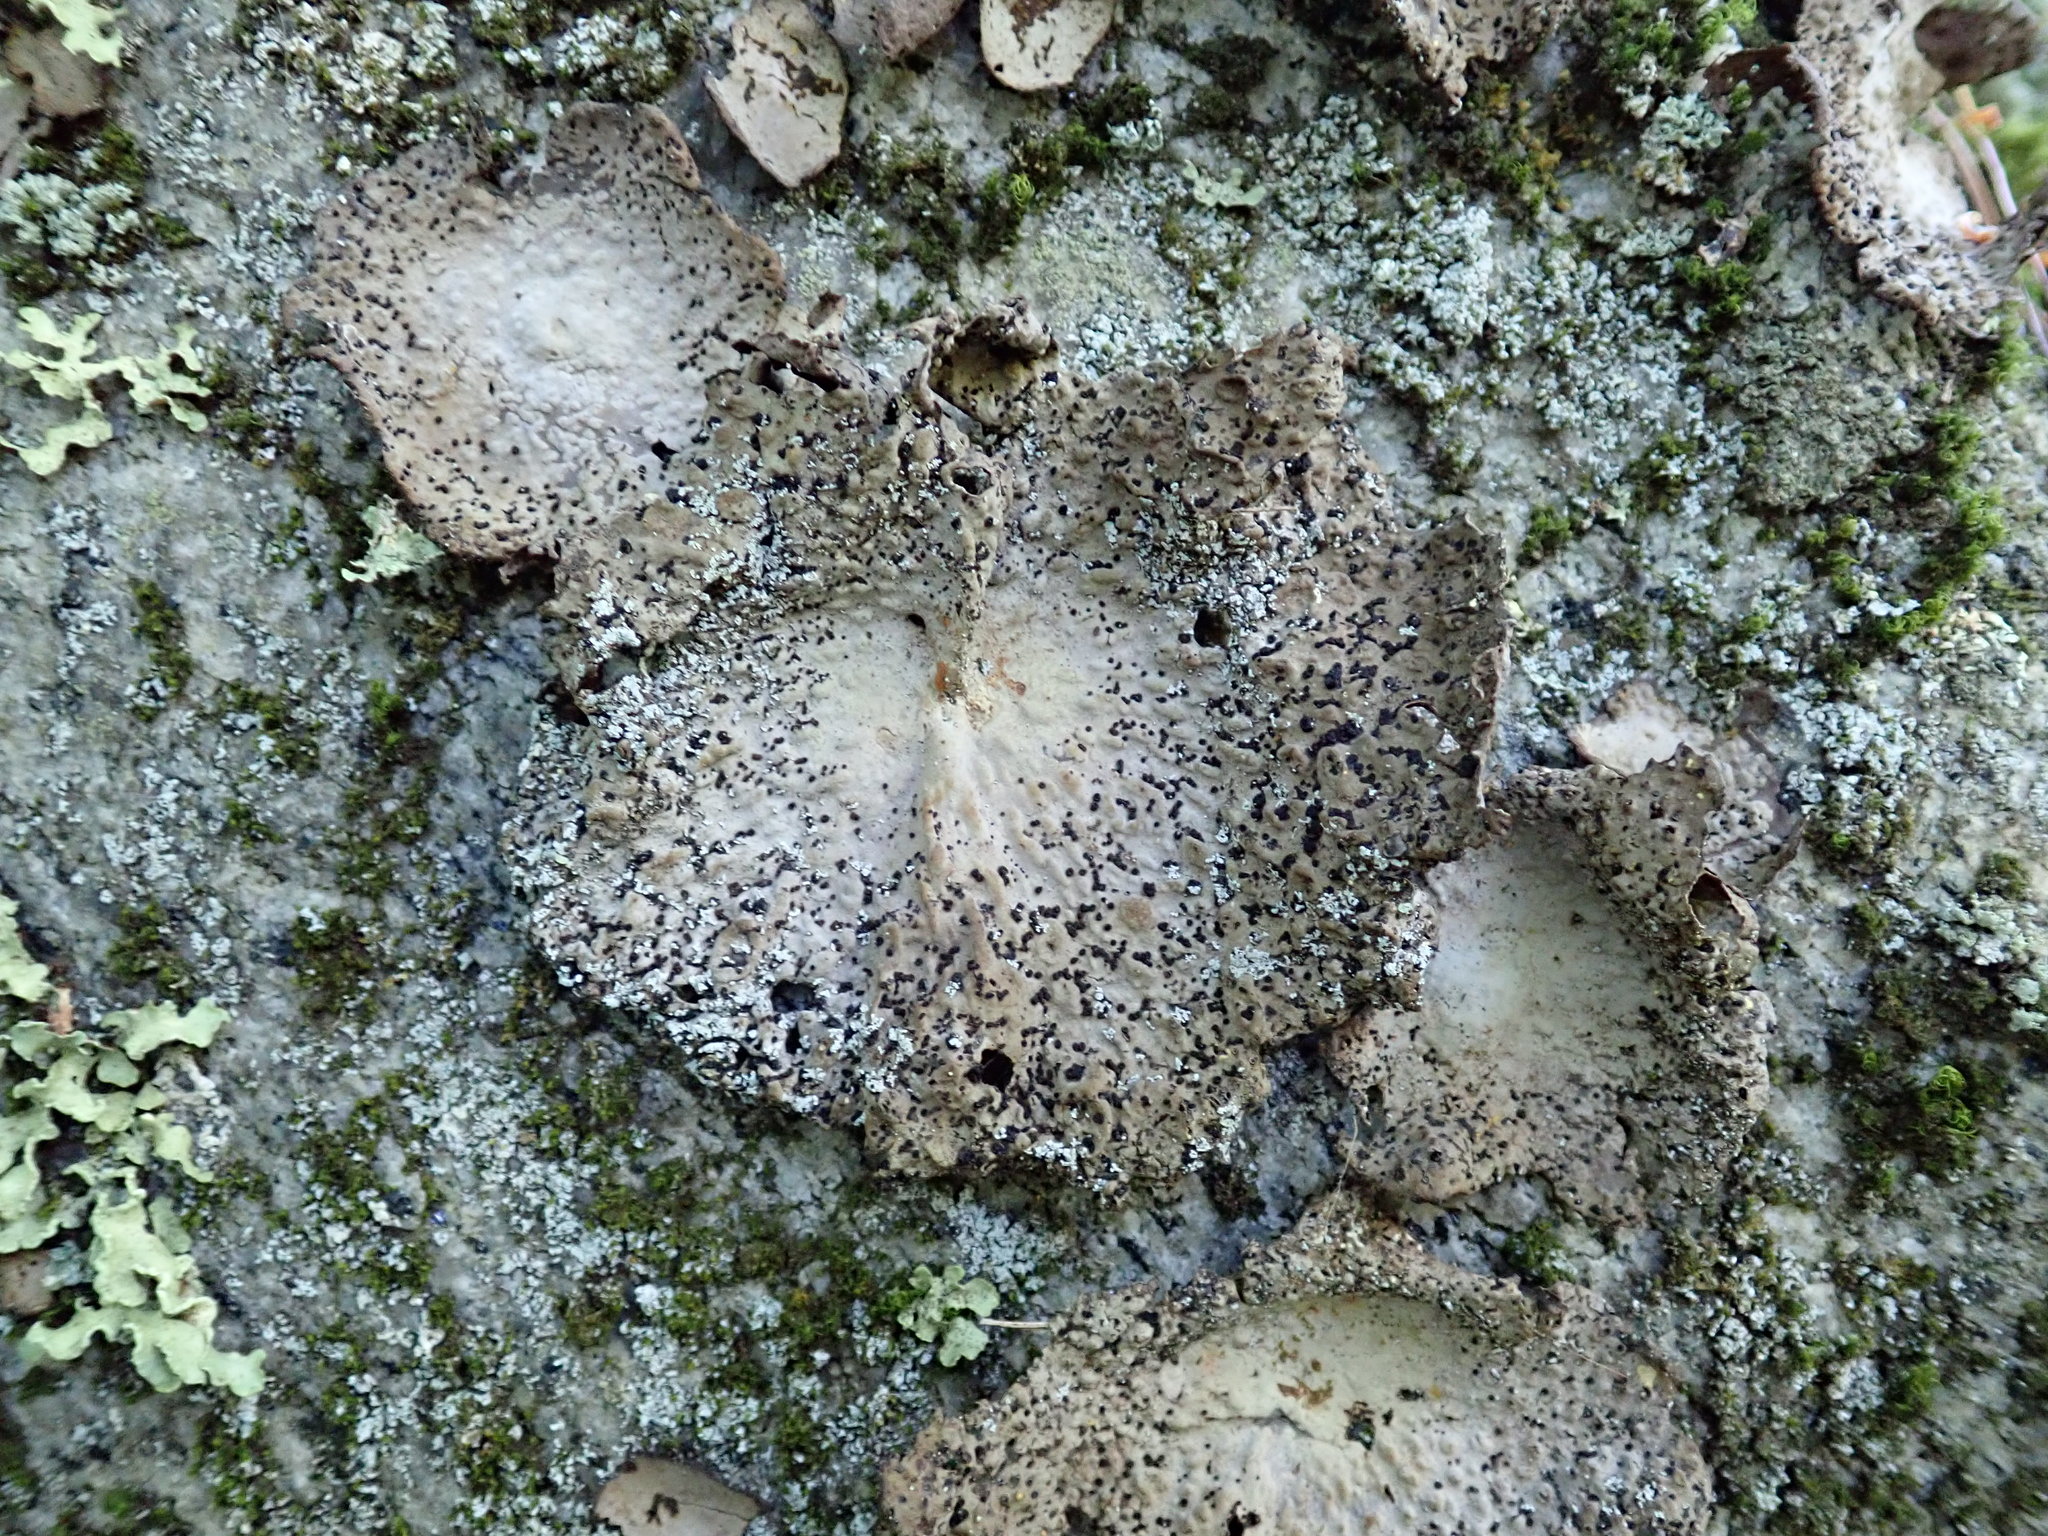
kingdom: Fungi
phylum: Ascomycota
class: Lecanoromycetes
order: Umbilicariales
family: Umbilicariaceae
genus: Lasallia
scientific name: Lasallia papulosa
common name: Common toadskin lichen
